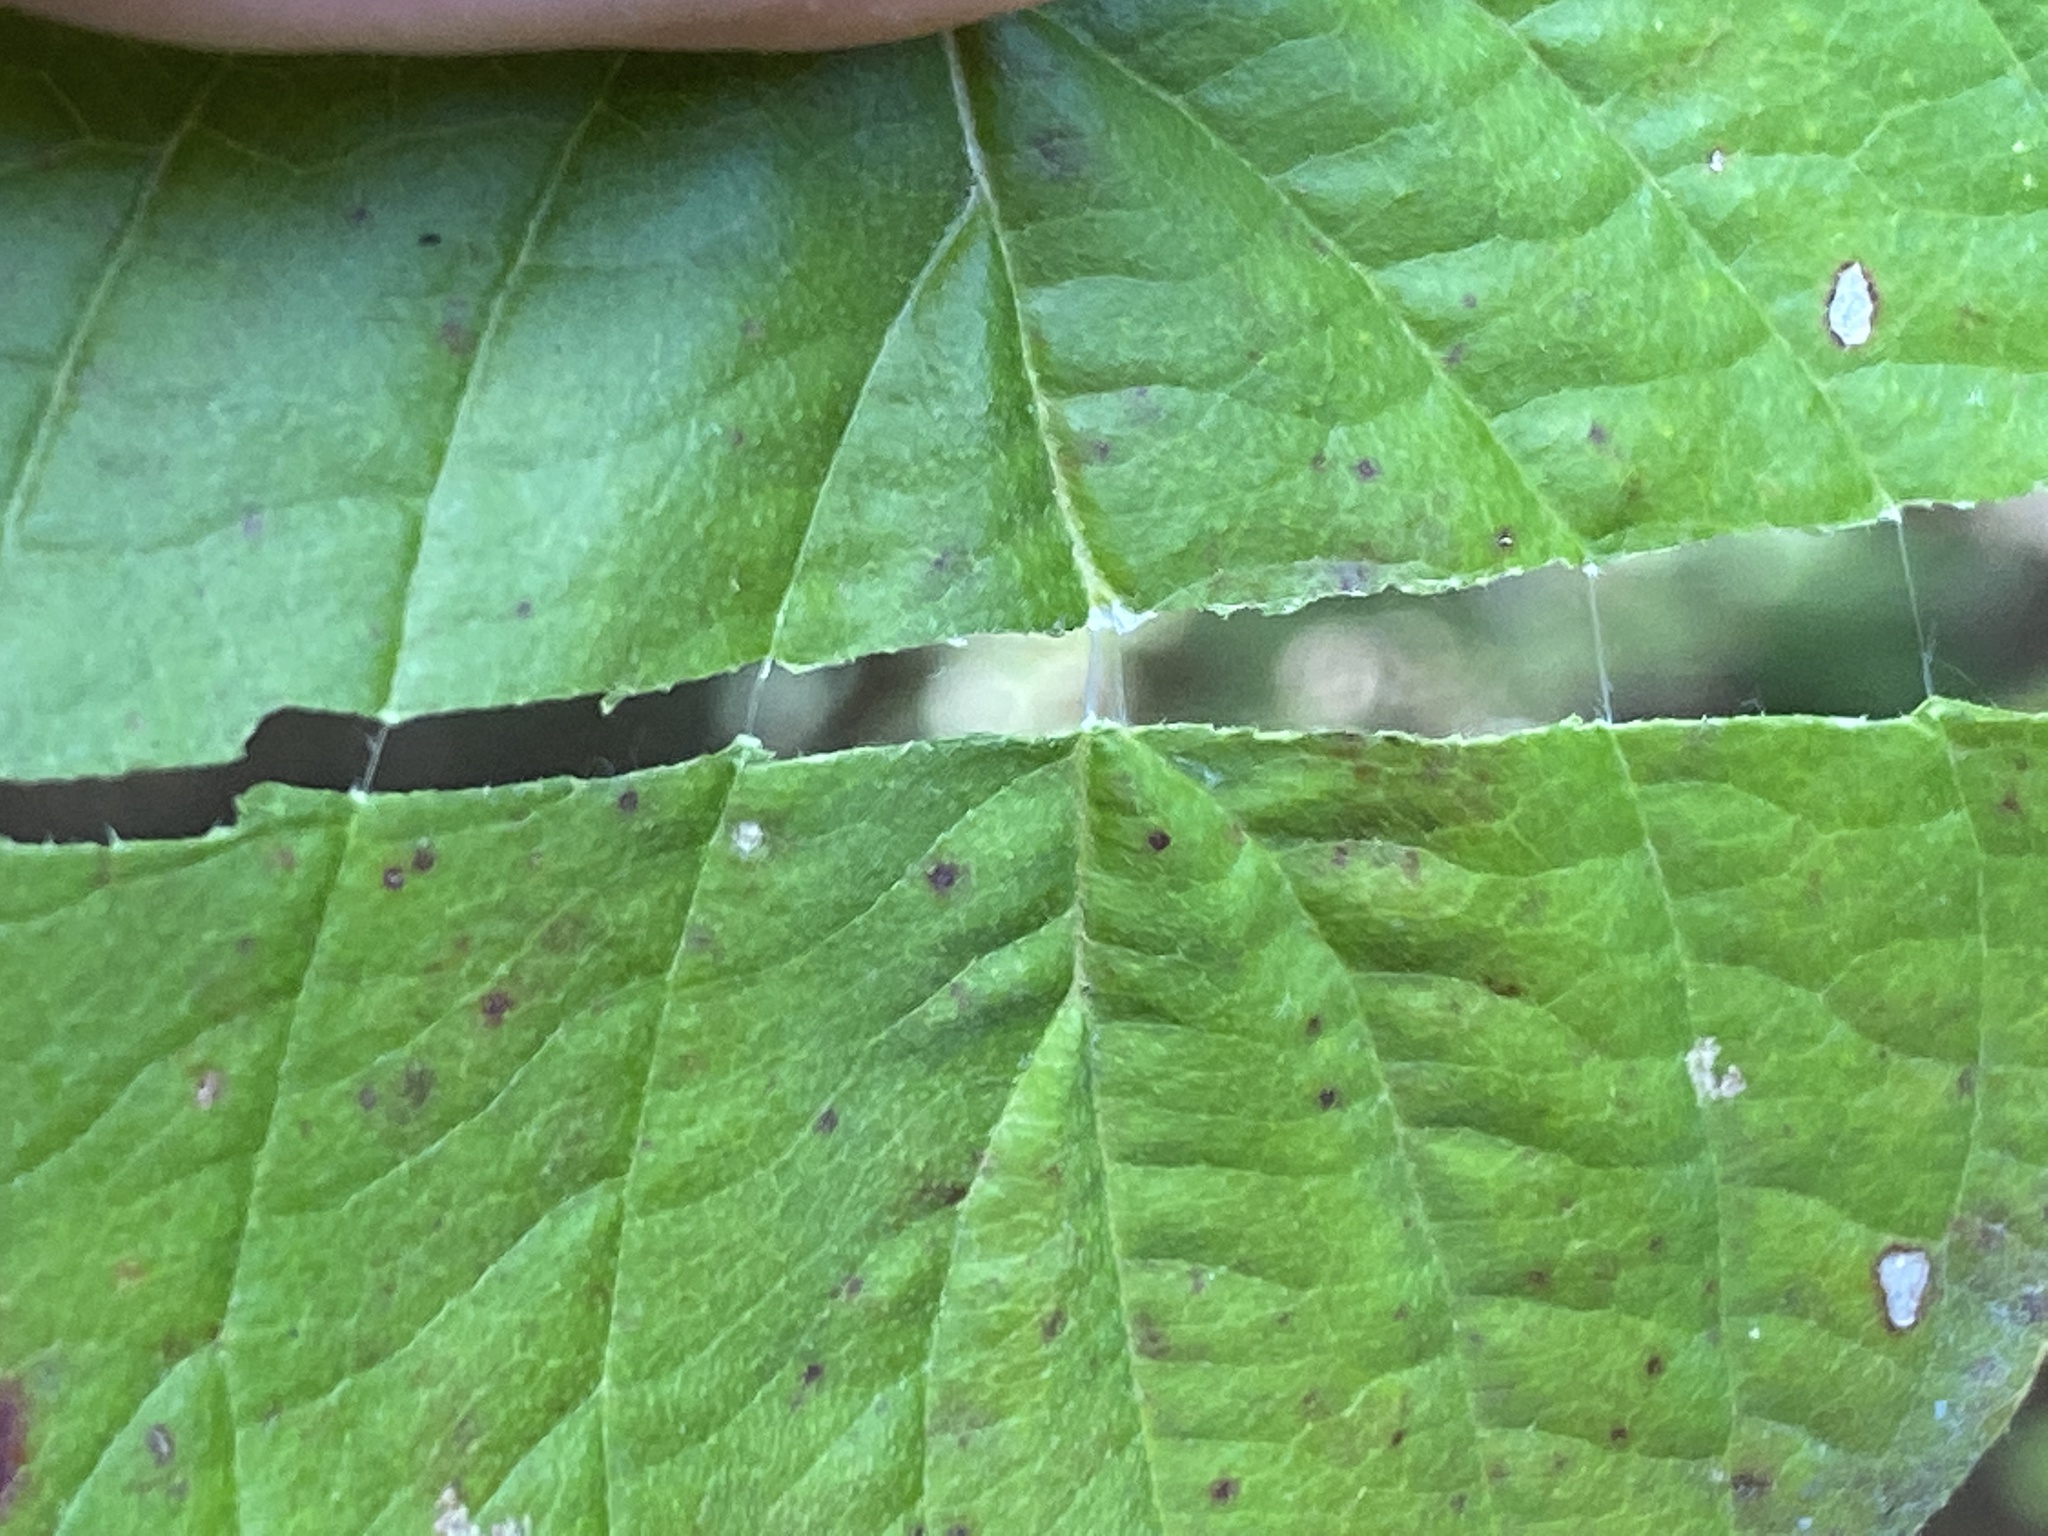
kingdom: Plantae
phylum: Tracheophyta
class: Magnoliopsida
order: Cornales
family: Cornaceae
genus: Cornus
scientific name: Cornus florida
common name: Flowering dogwood
